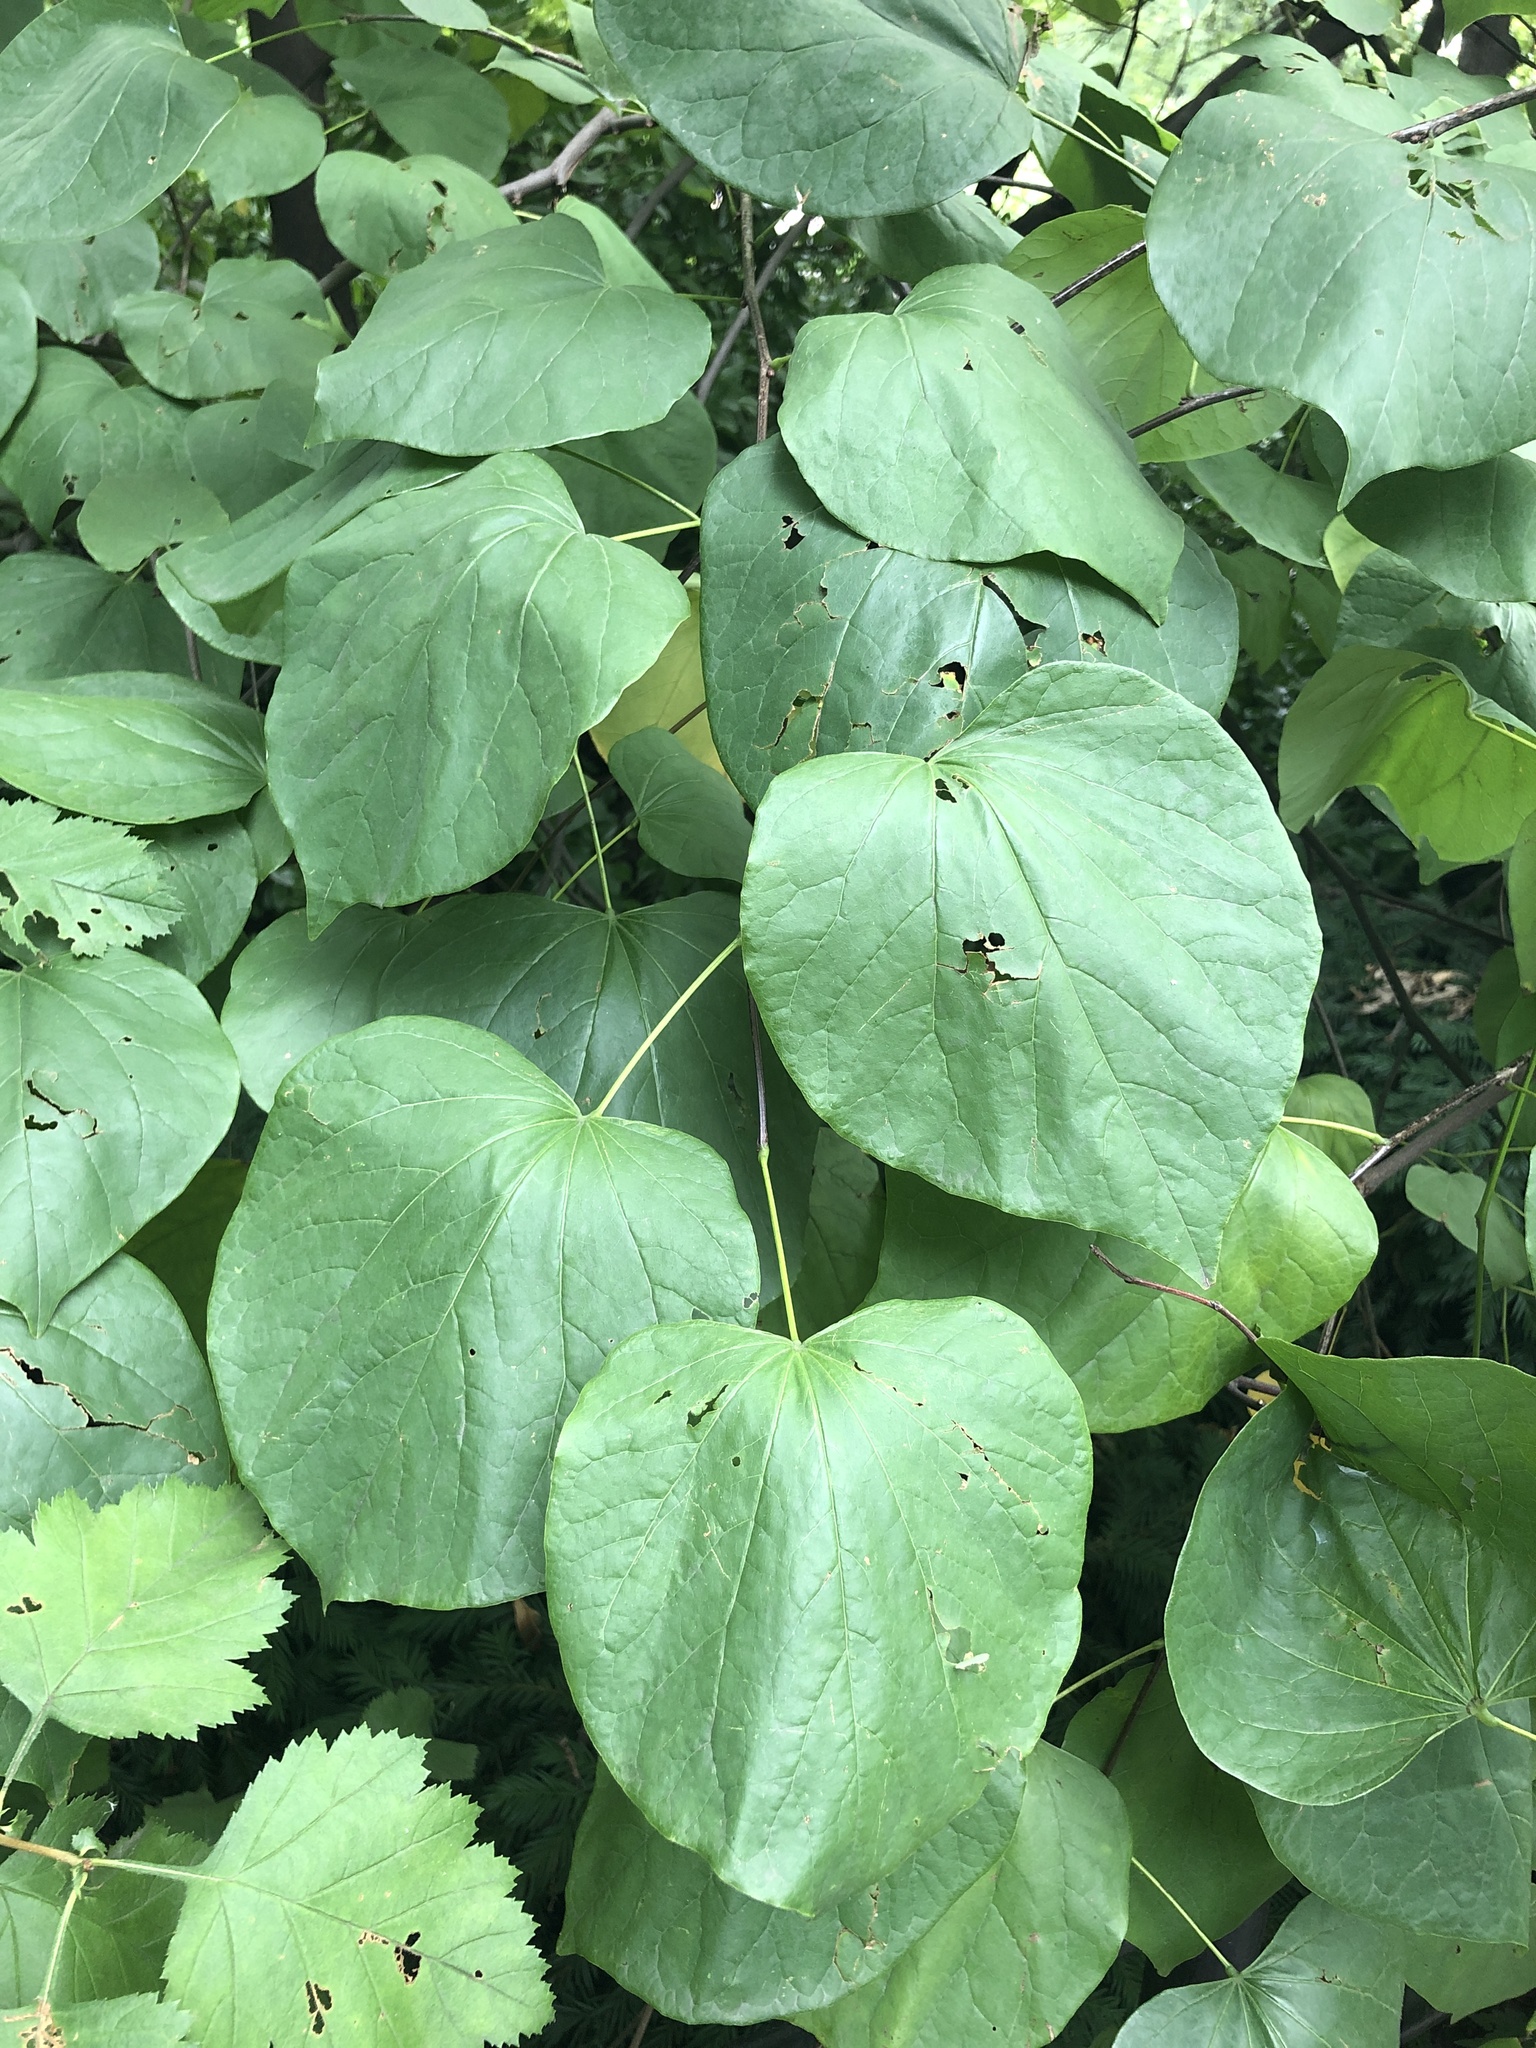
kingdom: Plantae
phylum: Tracheophyta
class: Magnoliopsida
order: Fabales
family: Fabaceae
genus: Cercis
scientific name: Cercis canadensis
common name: Eastern redbud
